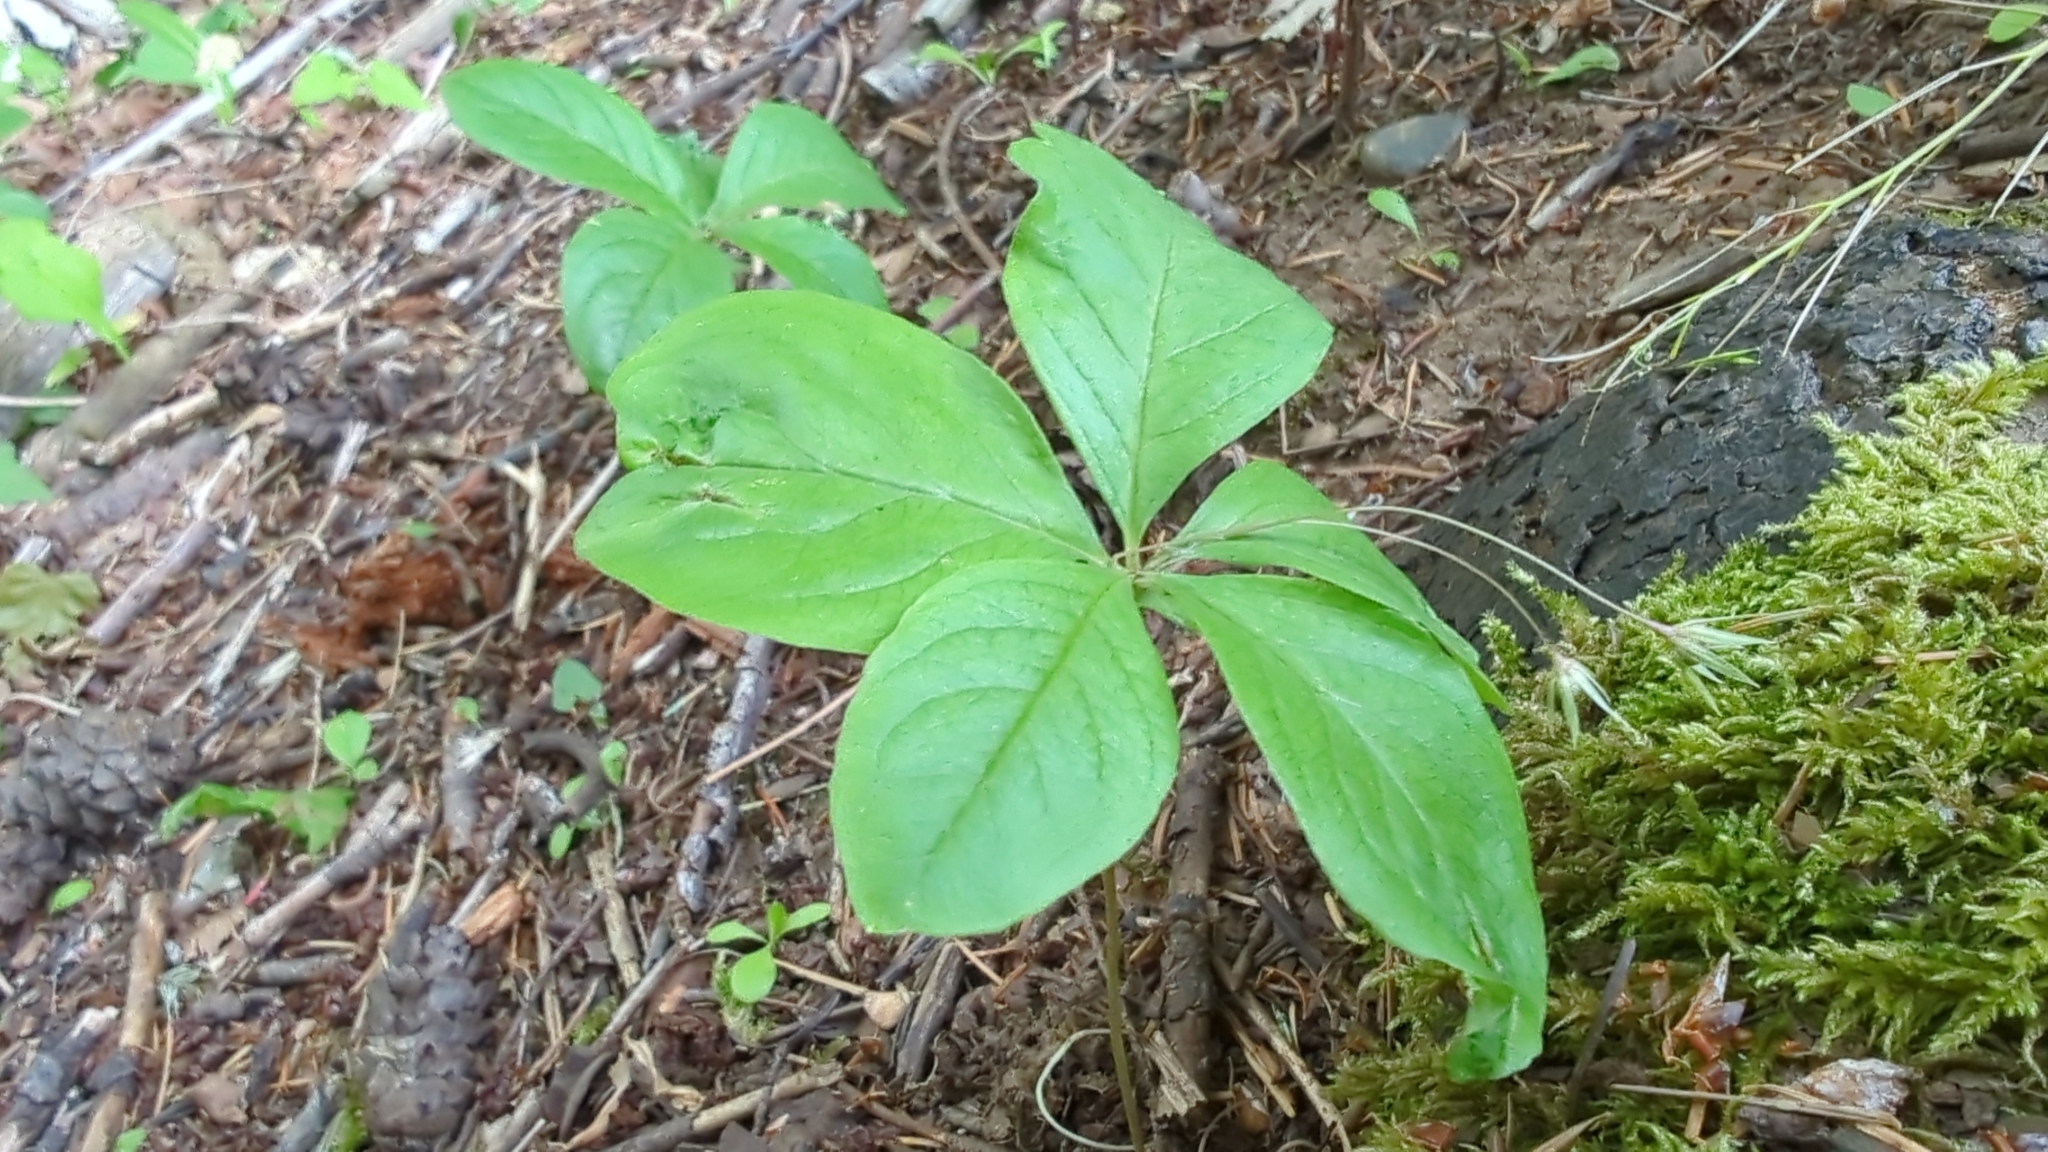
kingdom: Plantae
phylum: Tracheophyta
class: Magnoliopsida
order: Ericales
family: Primulaceae
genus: Lysimachia
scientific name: Lysimachia latifolia
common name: Pacific starflower
